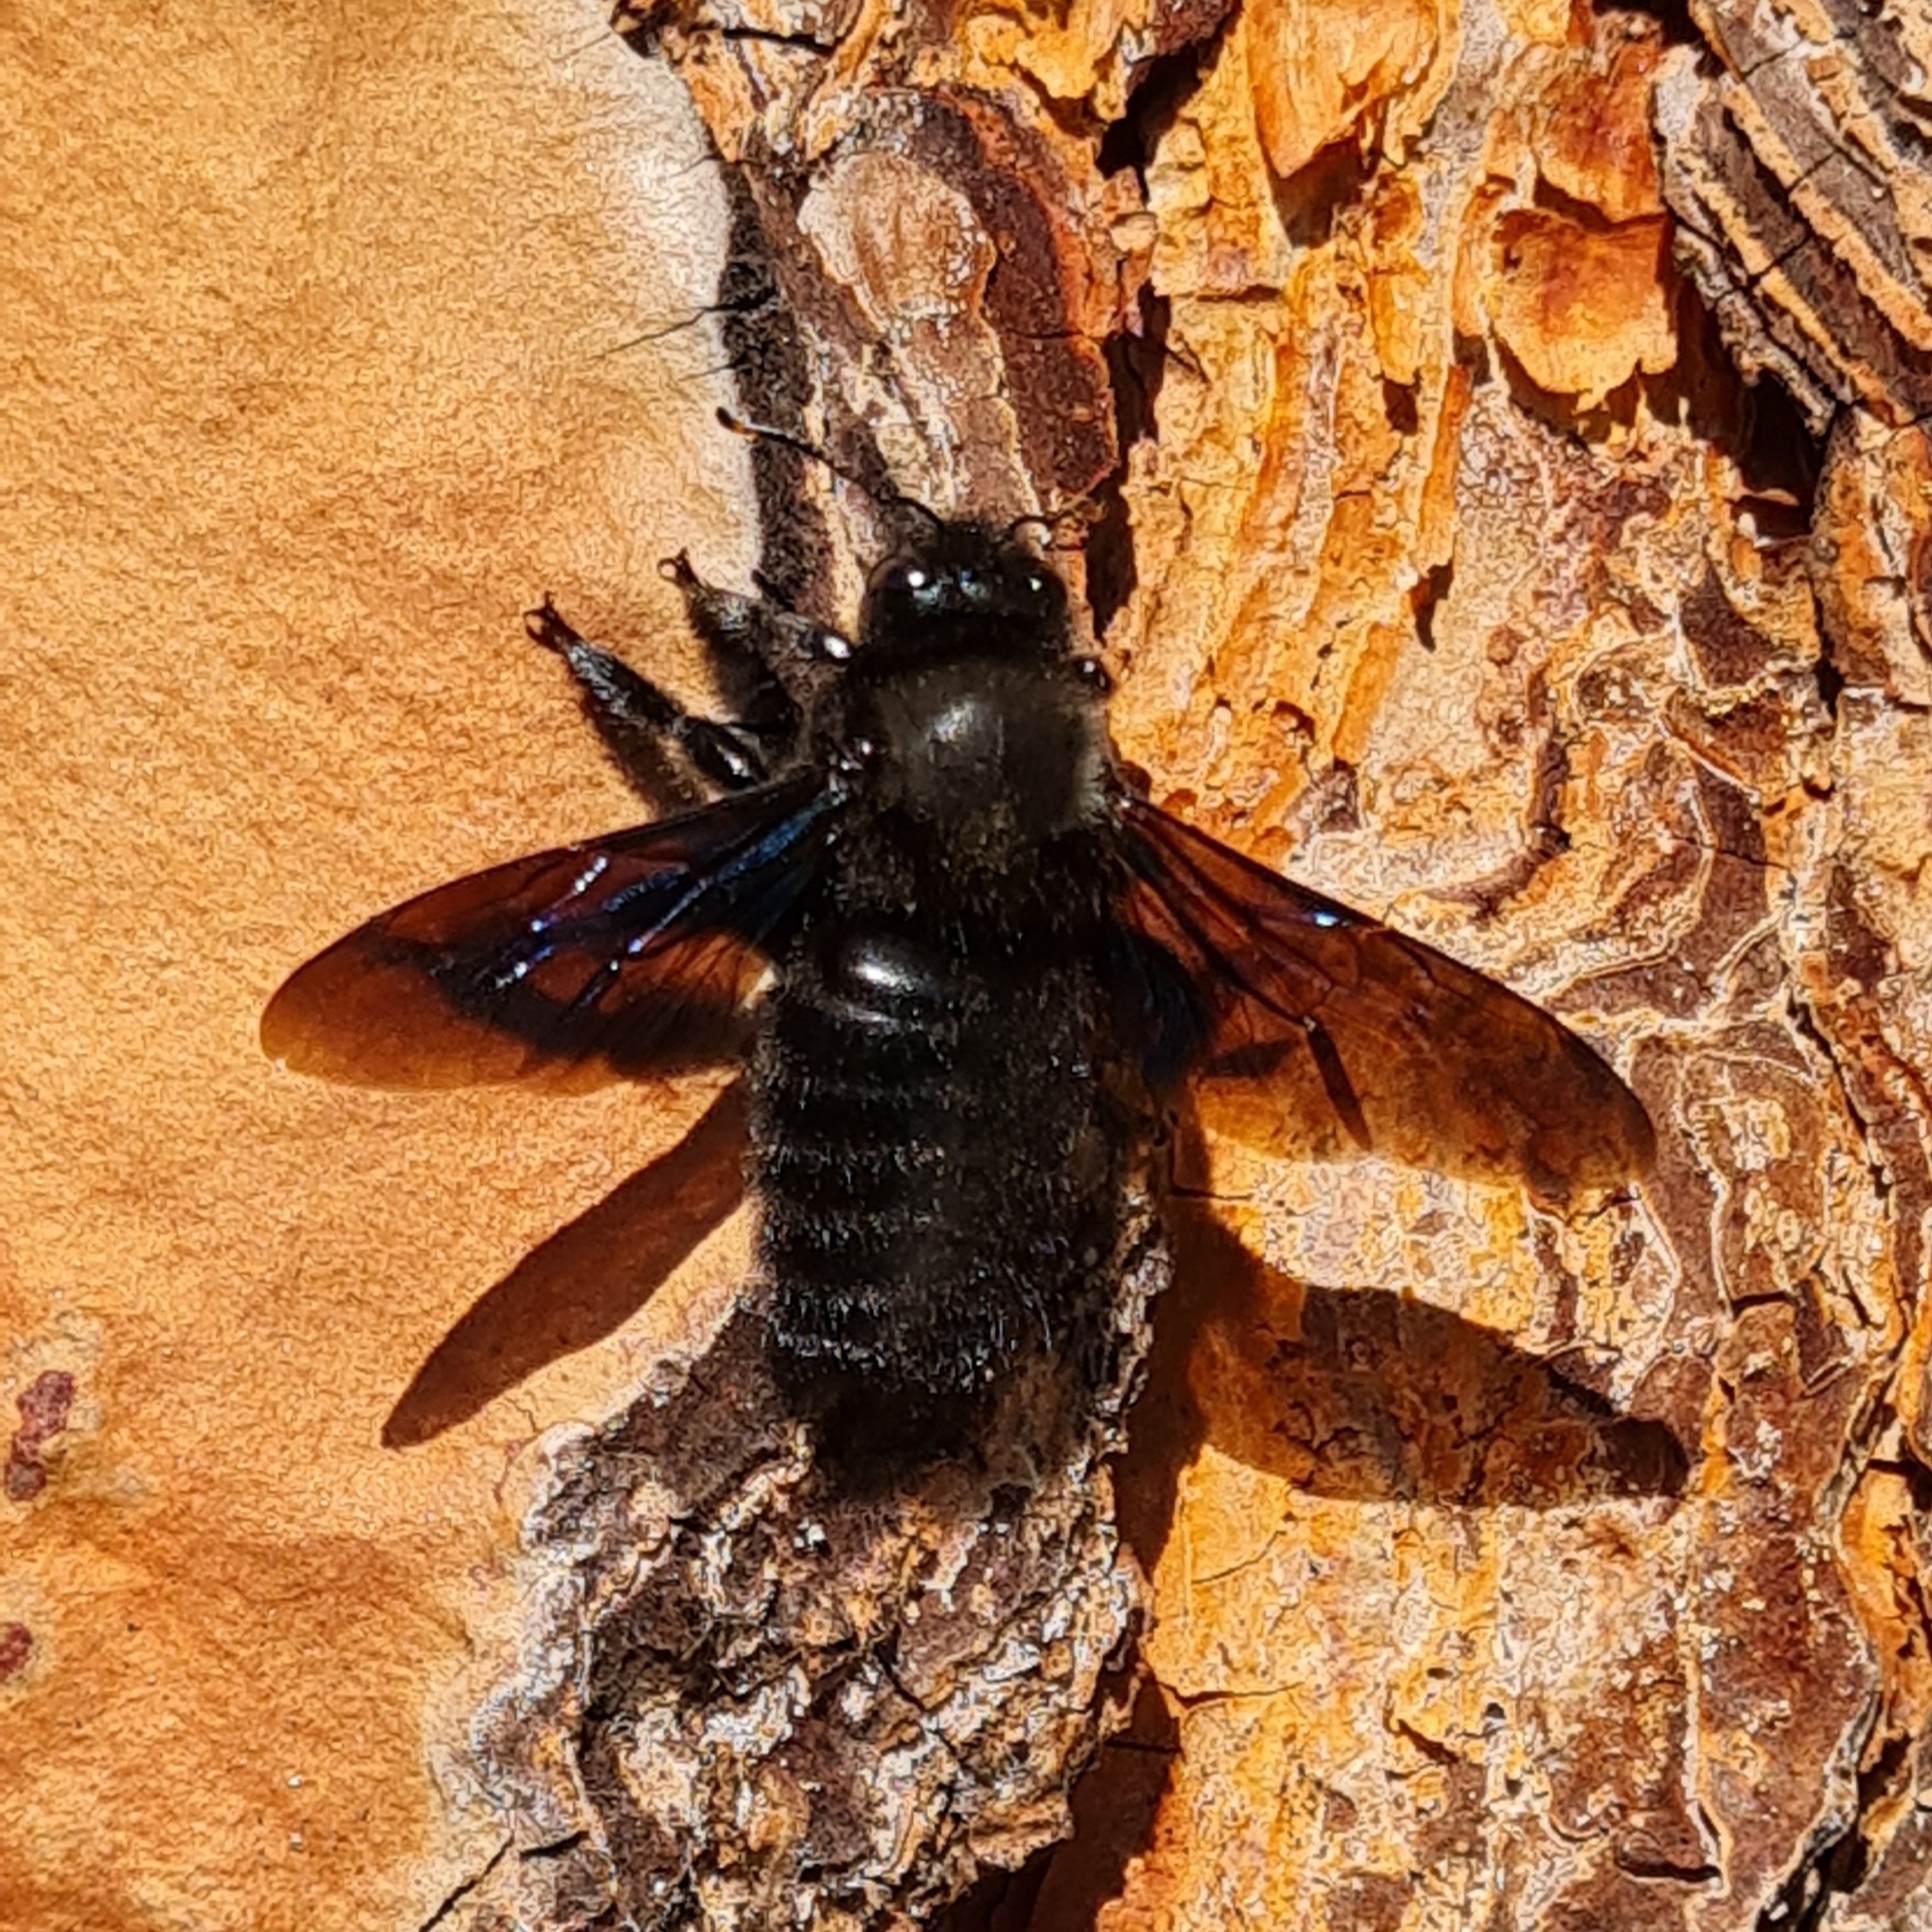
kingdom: Animalia
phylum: Arthropoda
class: Insecta
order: Hymenoptera
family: Apidae
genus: Xylocopa
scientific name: Xylocopa violacea
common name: Violet carpenter bee
